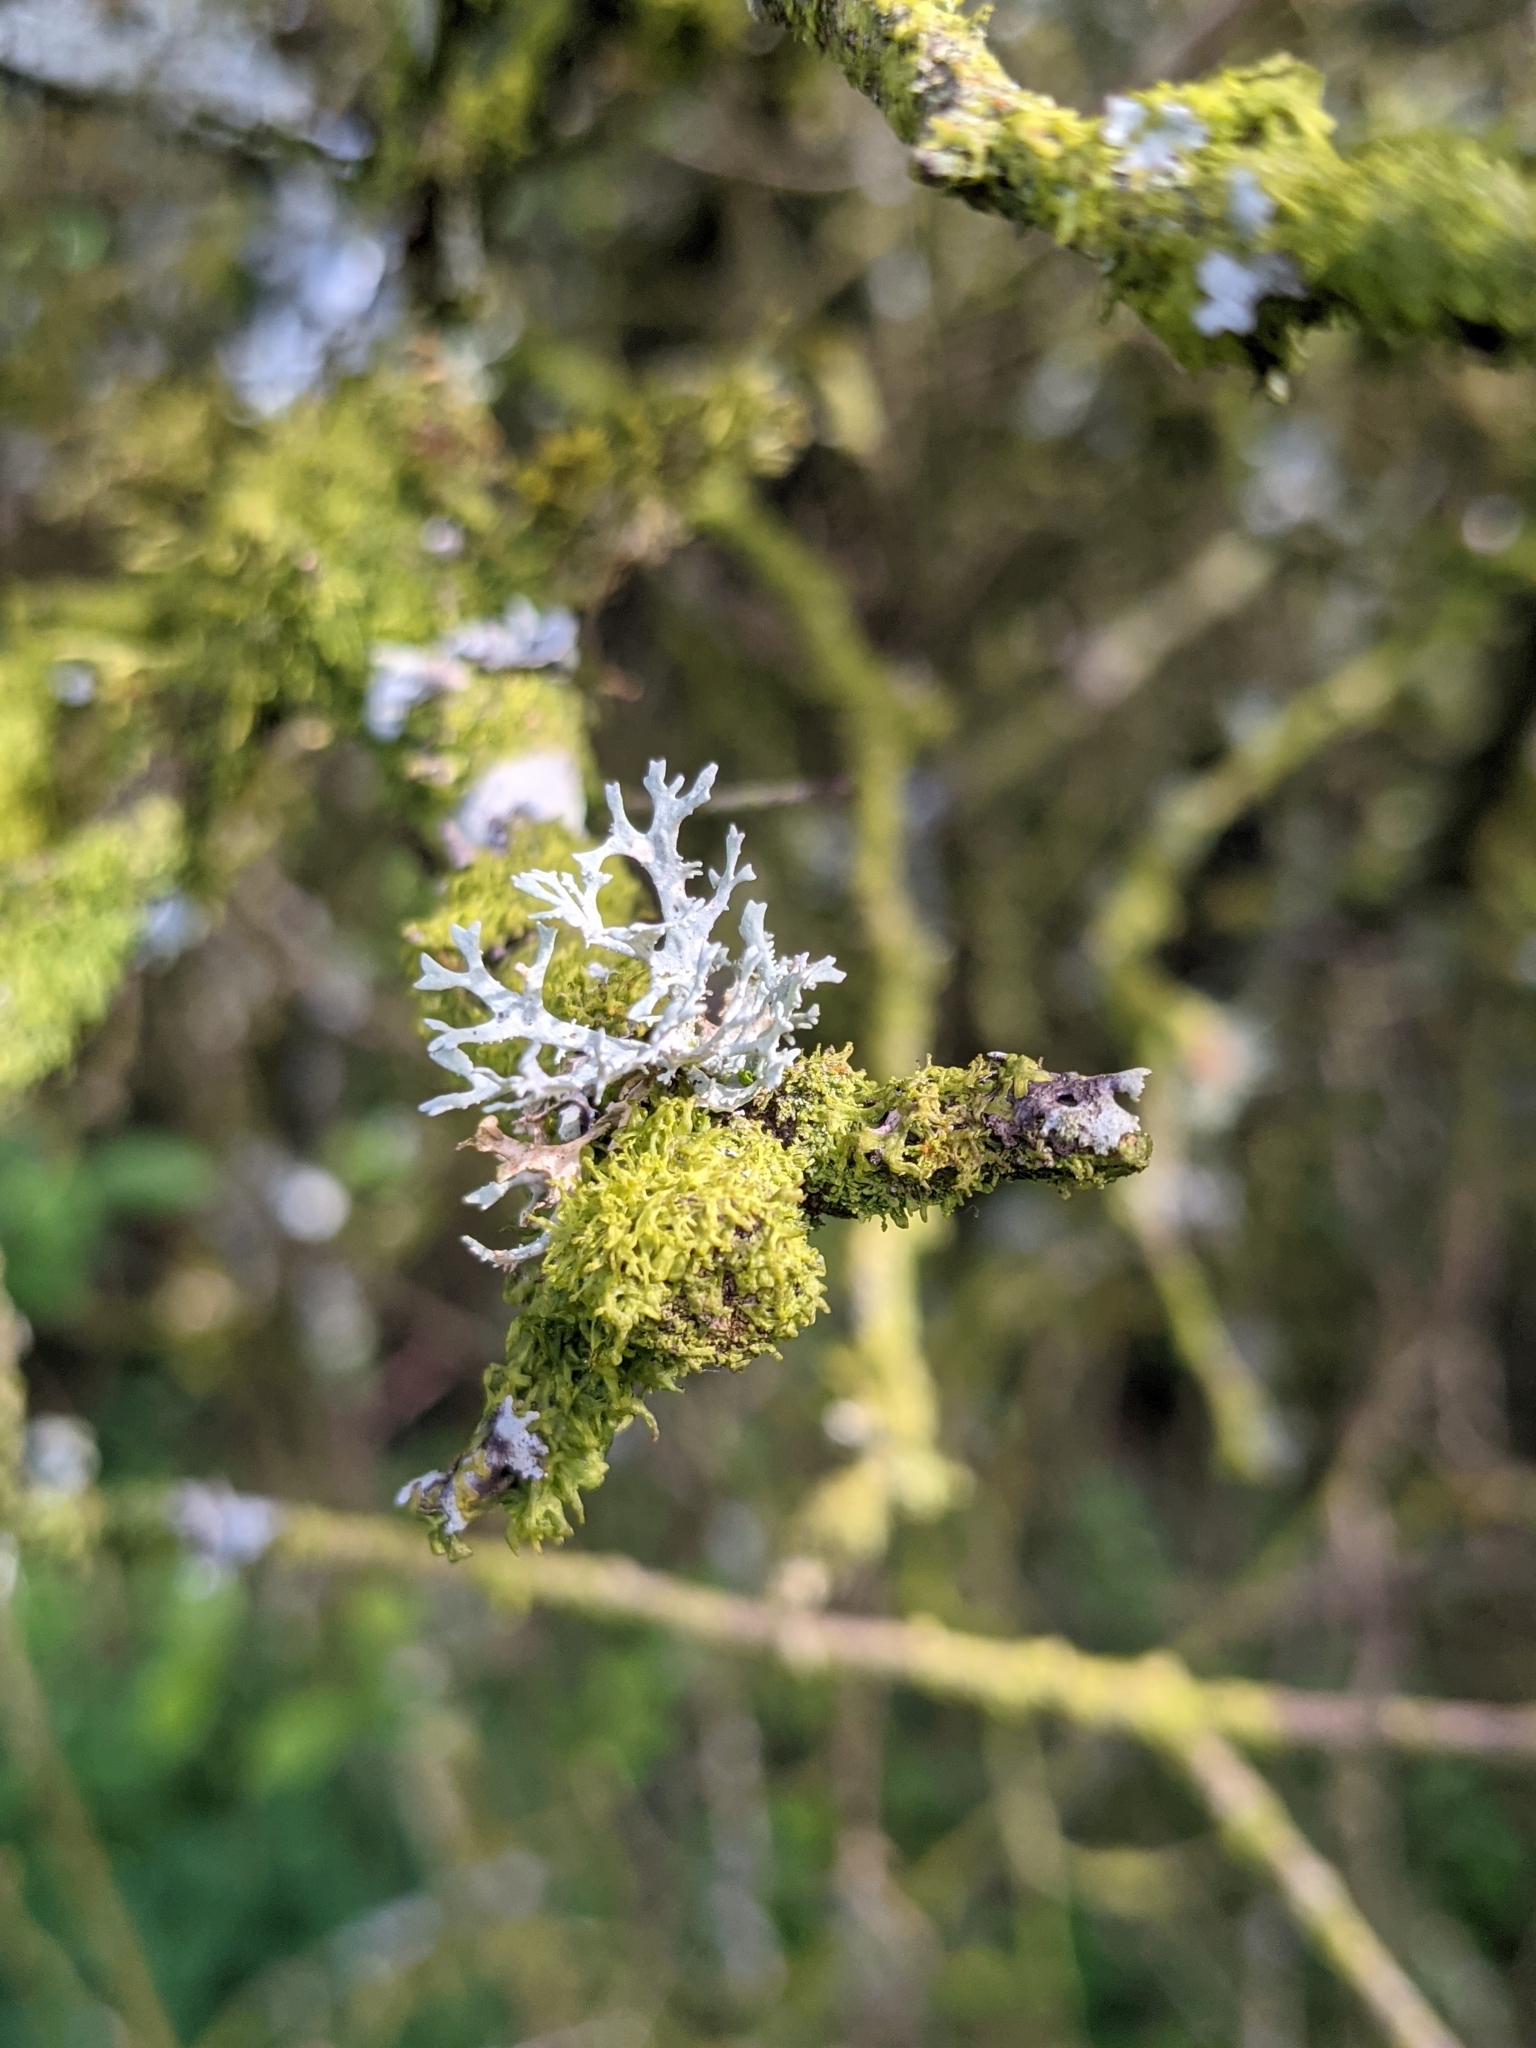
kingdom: Fungi
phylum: Ascomycota
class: Lecanoromycetes
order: Lecanorales
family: Parmeliaceae
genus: Evernia
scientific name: Evernia prunastri
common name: Oak moss
